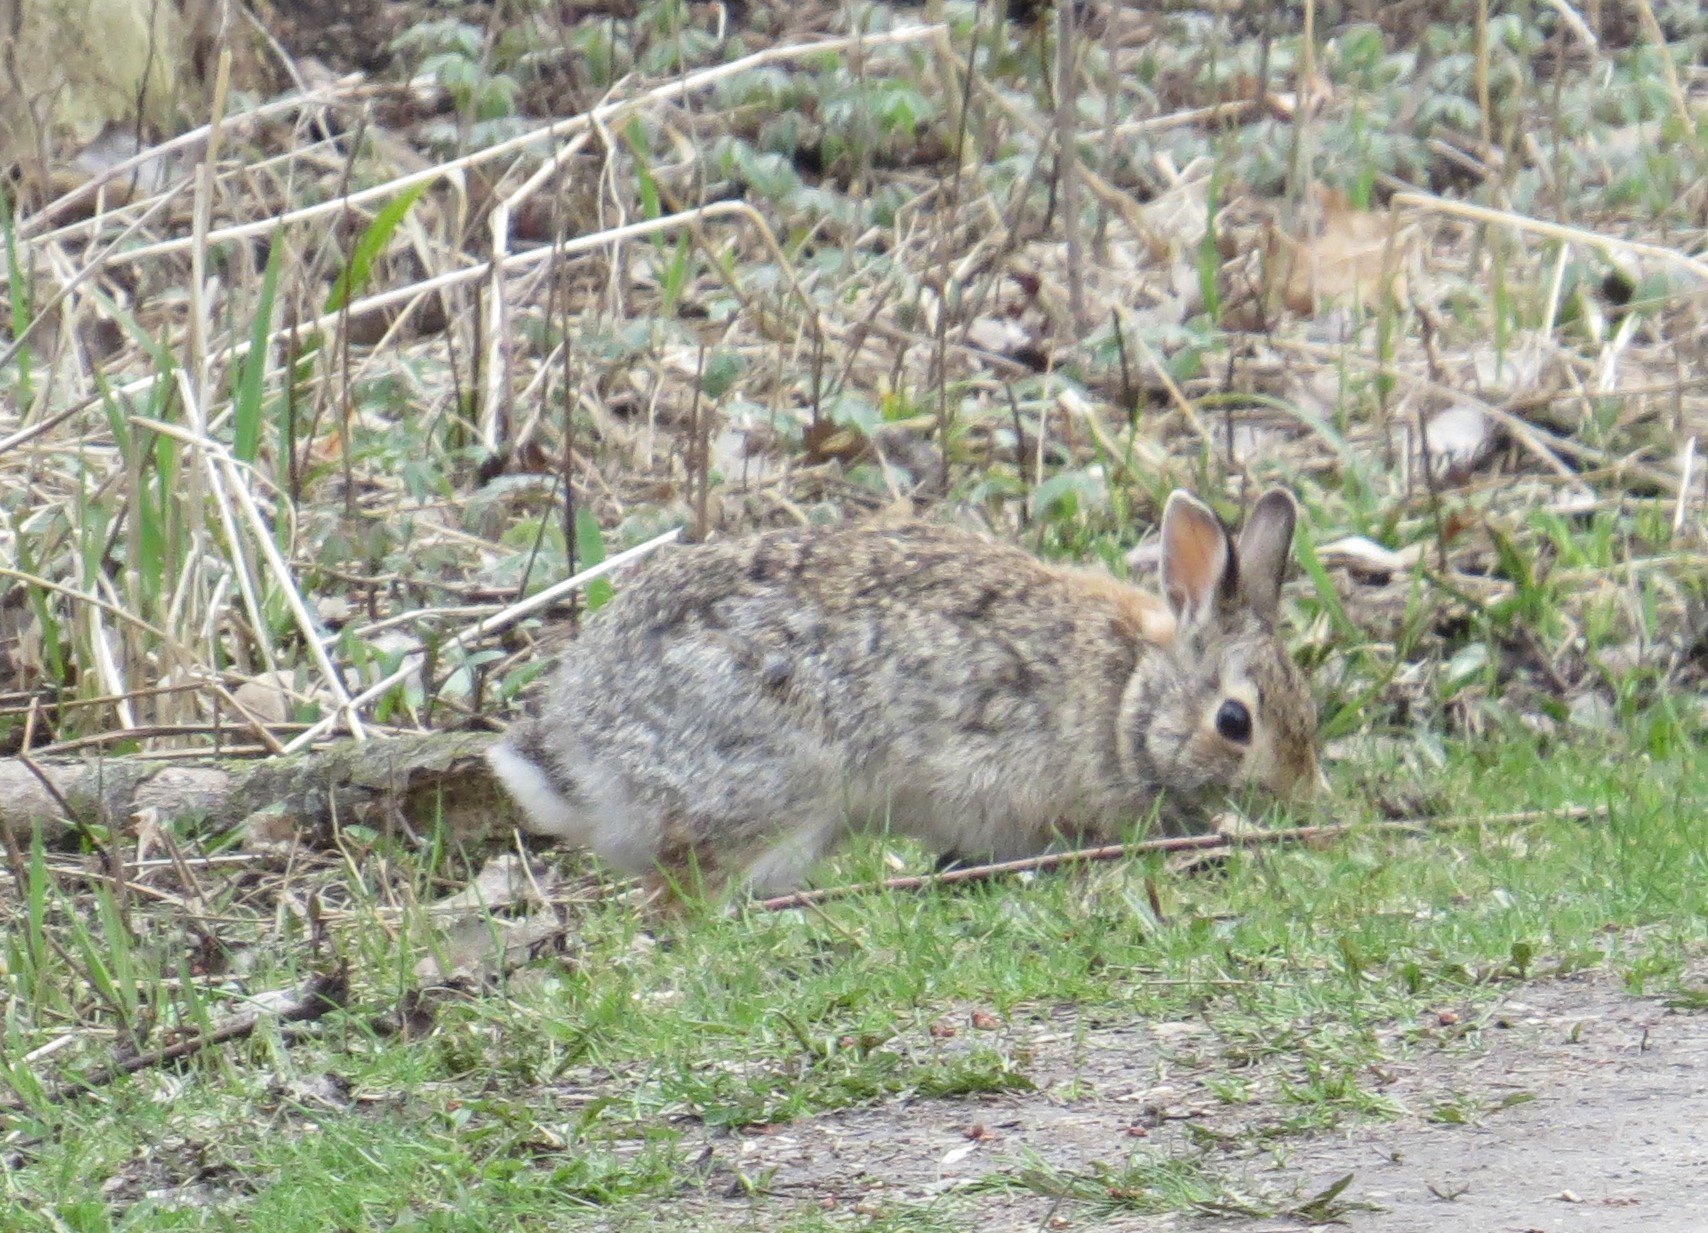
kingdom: Animalia
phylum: Chordata
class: Mammalia
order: Lagomorpha
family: Leporidae
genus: Sylvilagus
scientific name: Sylvilagus floridanus
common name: Eastern cottontail
